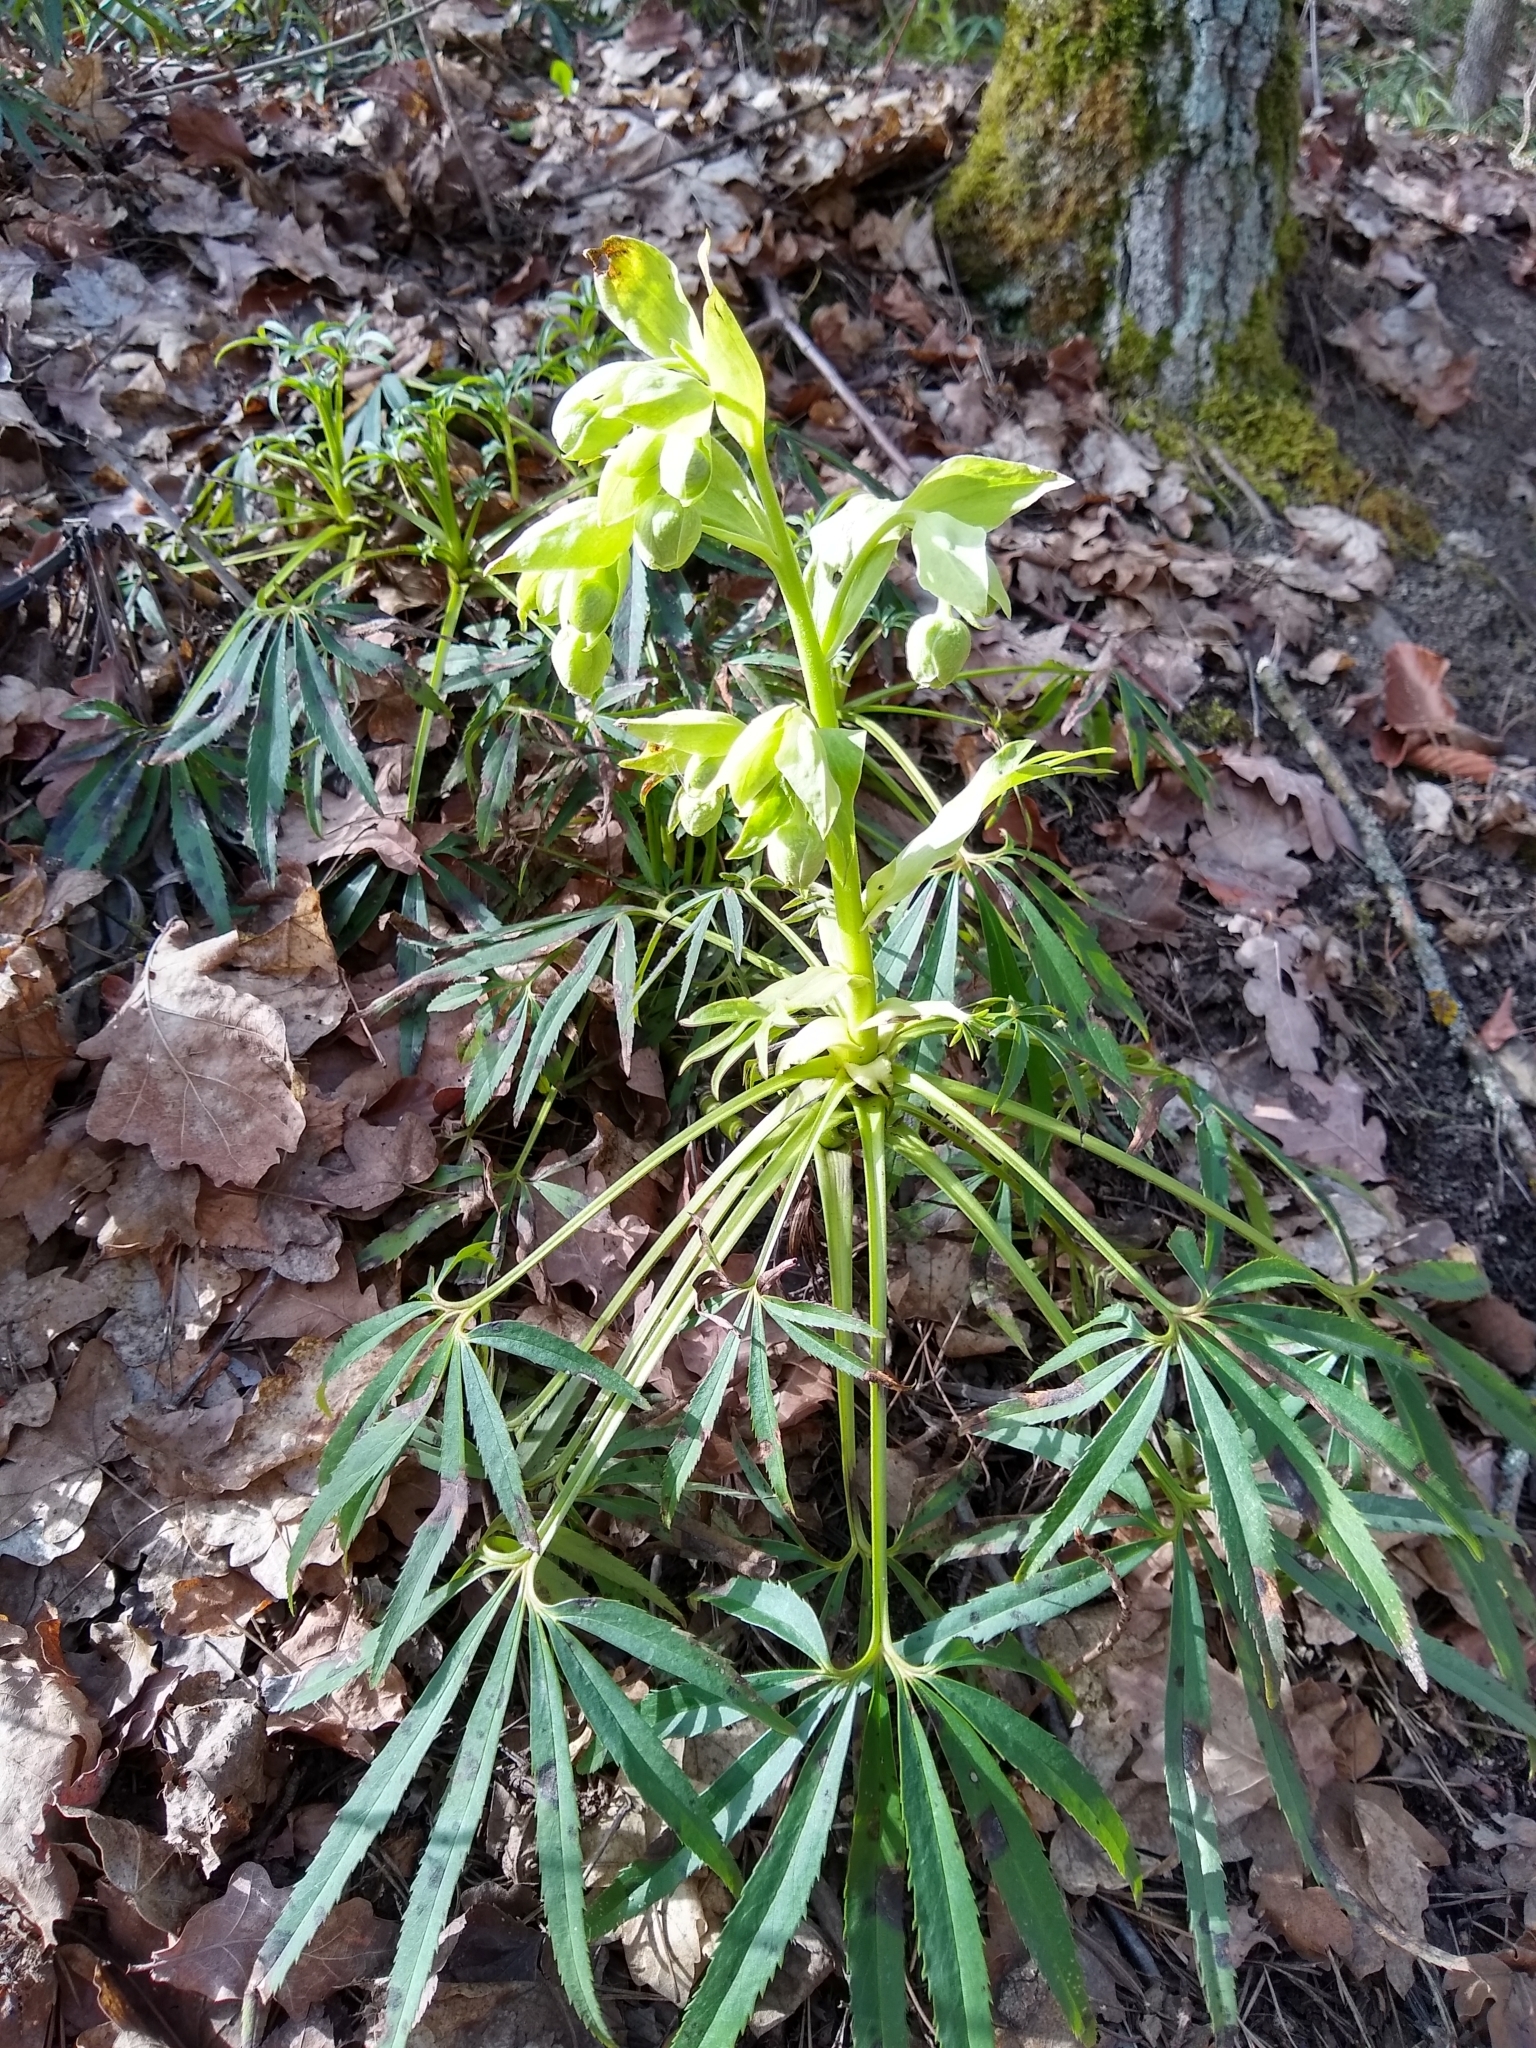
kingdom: Plantae
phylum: Tracheophyta
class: Magnoliopsida
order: Ranunculales
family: Ranunculaceae
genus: Helleborus
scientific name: Helleborus foetidus
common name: Stinking hellebore
